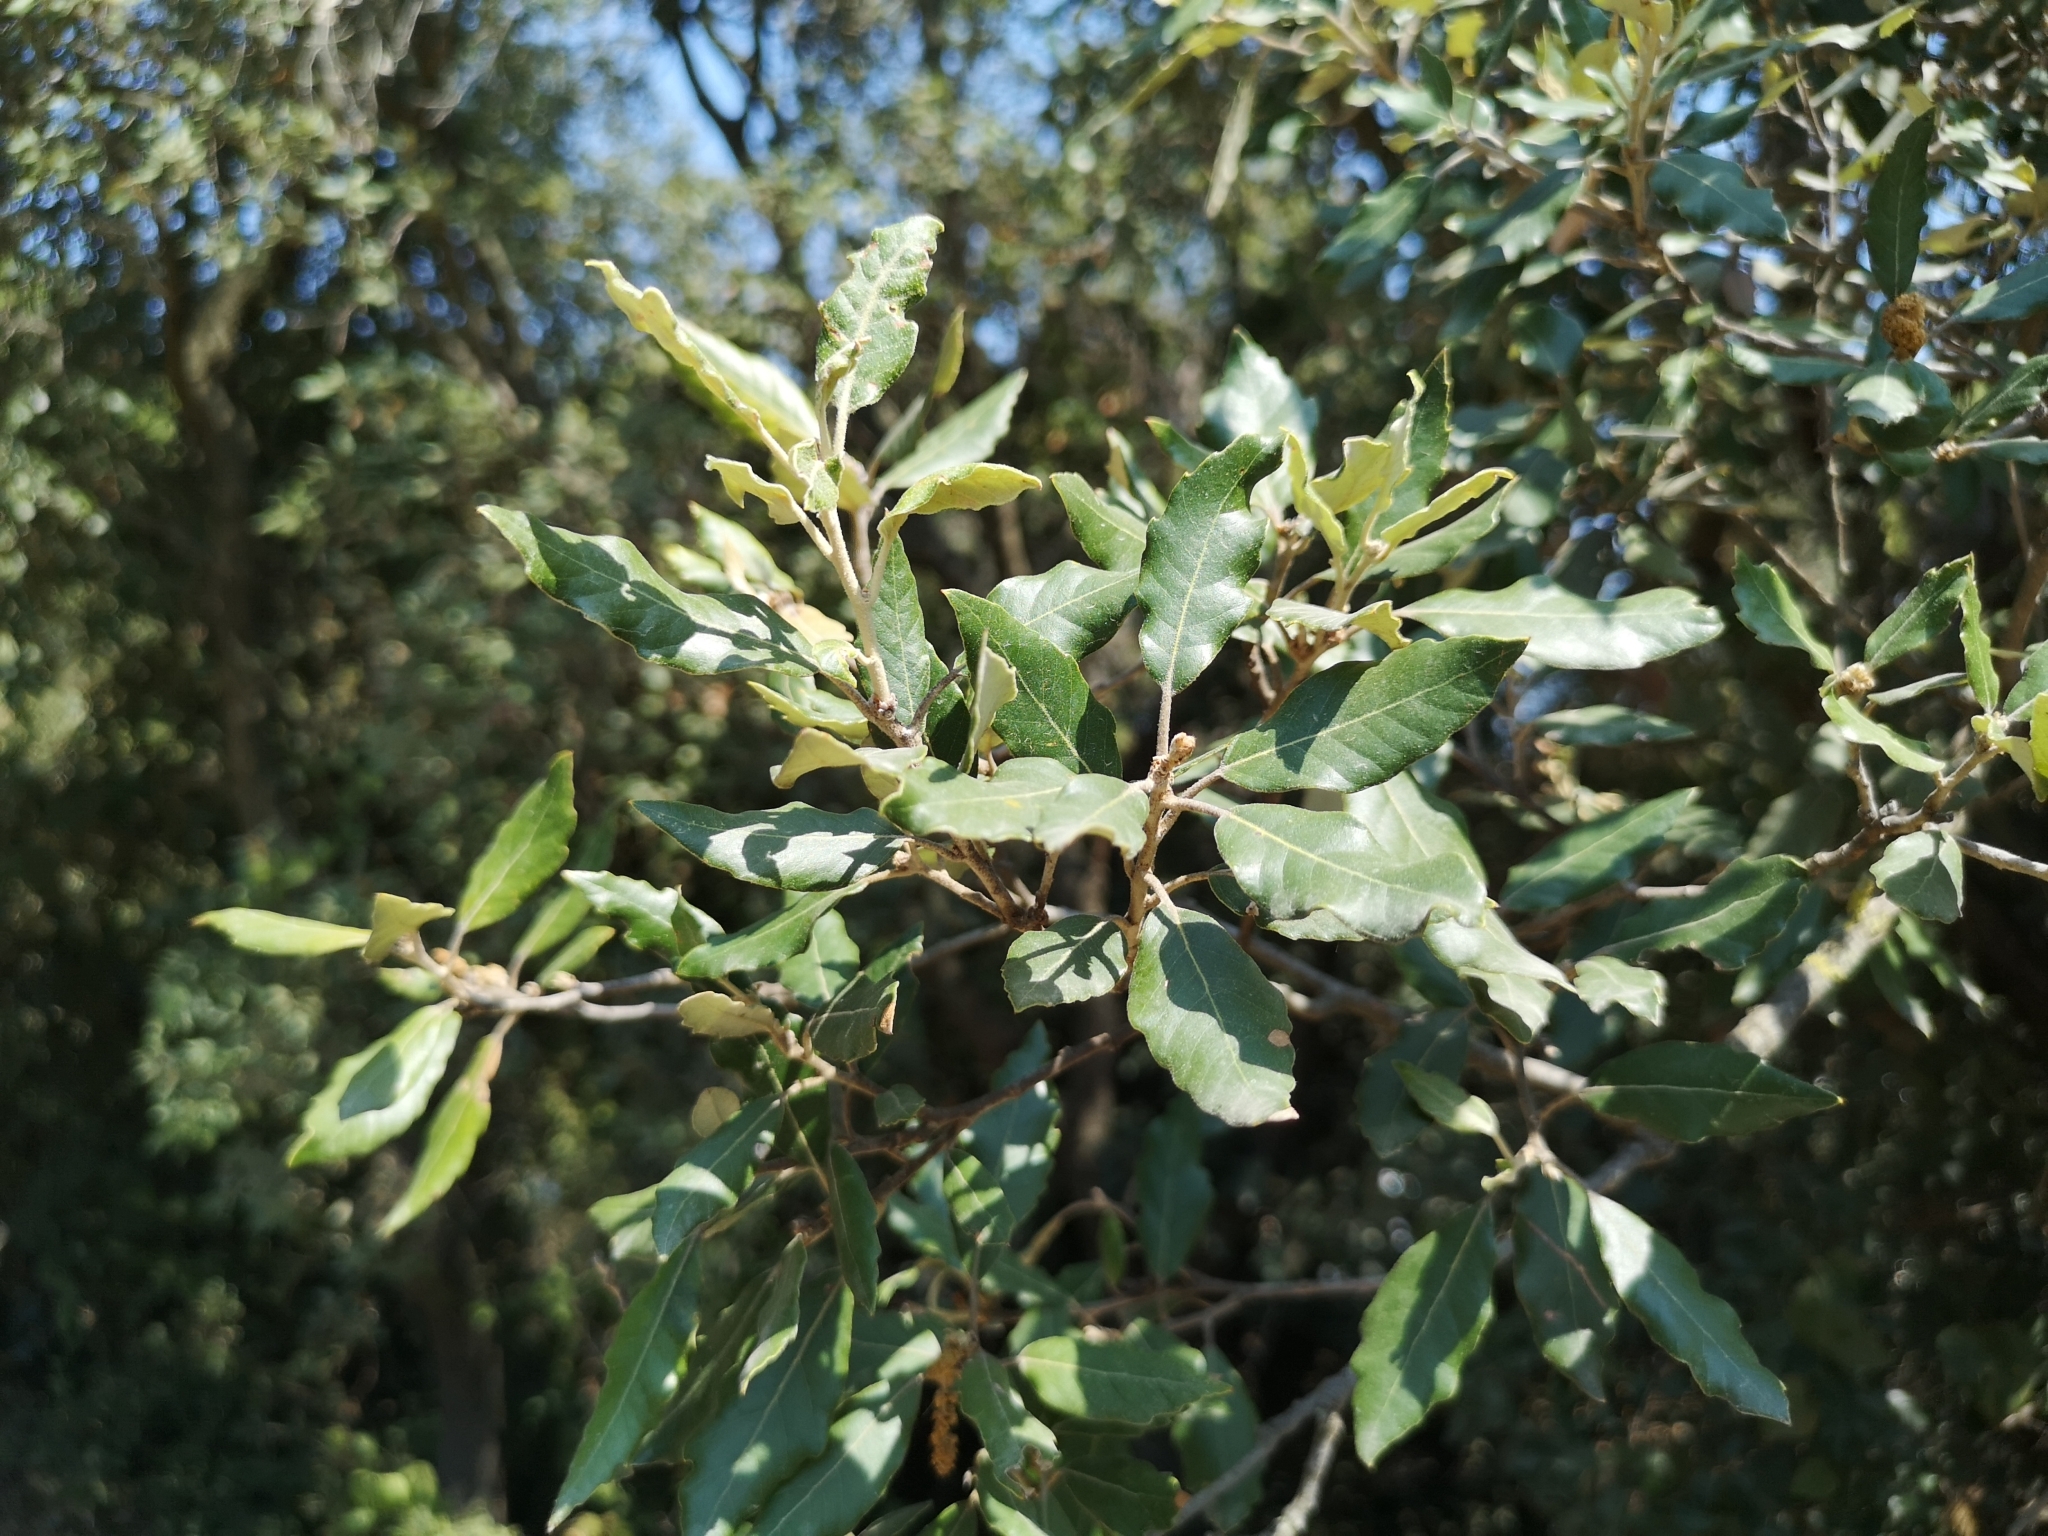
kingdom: Plantae
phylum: Tracheophyta
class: Magnoliopsida
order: Fagales
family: Fagaceae
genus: Quercus
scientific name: Quercus ilex
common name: Evergreen oak
